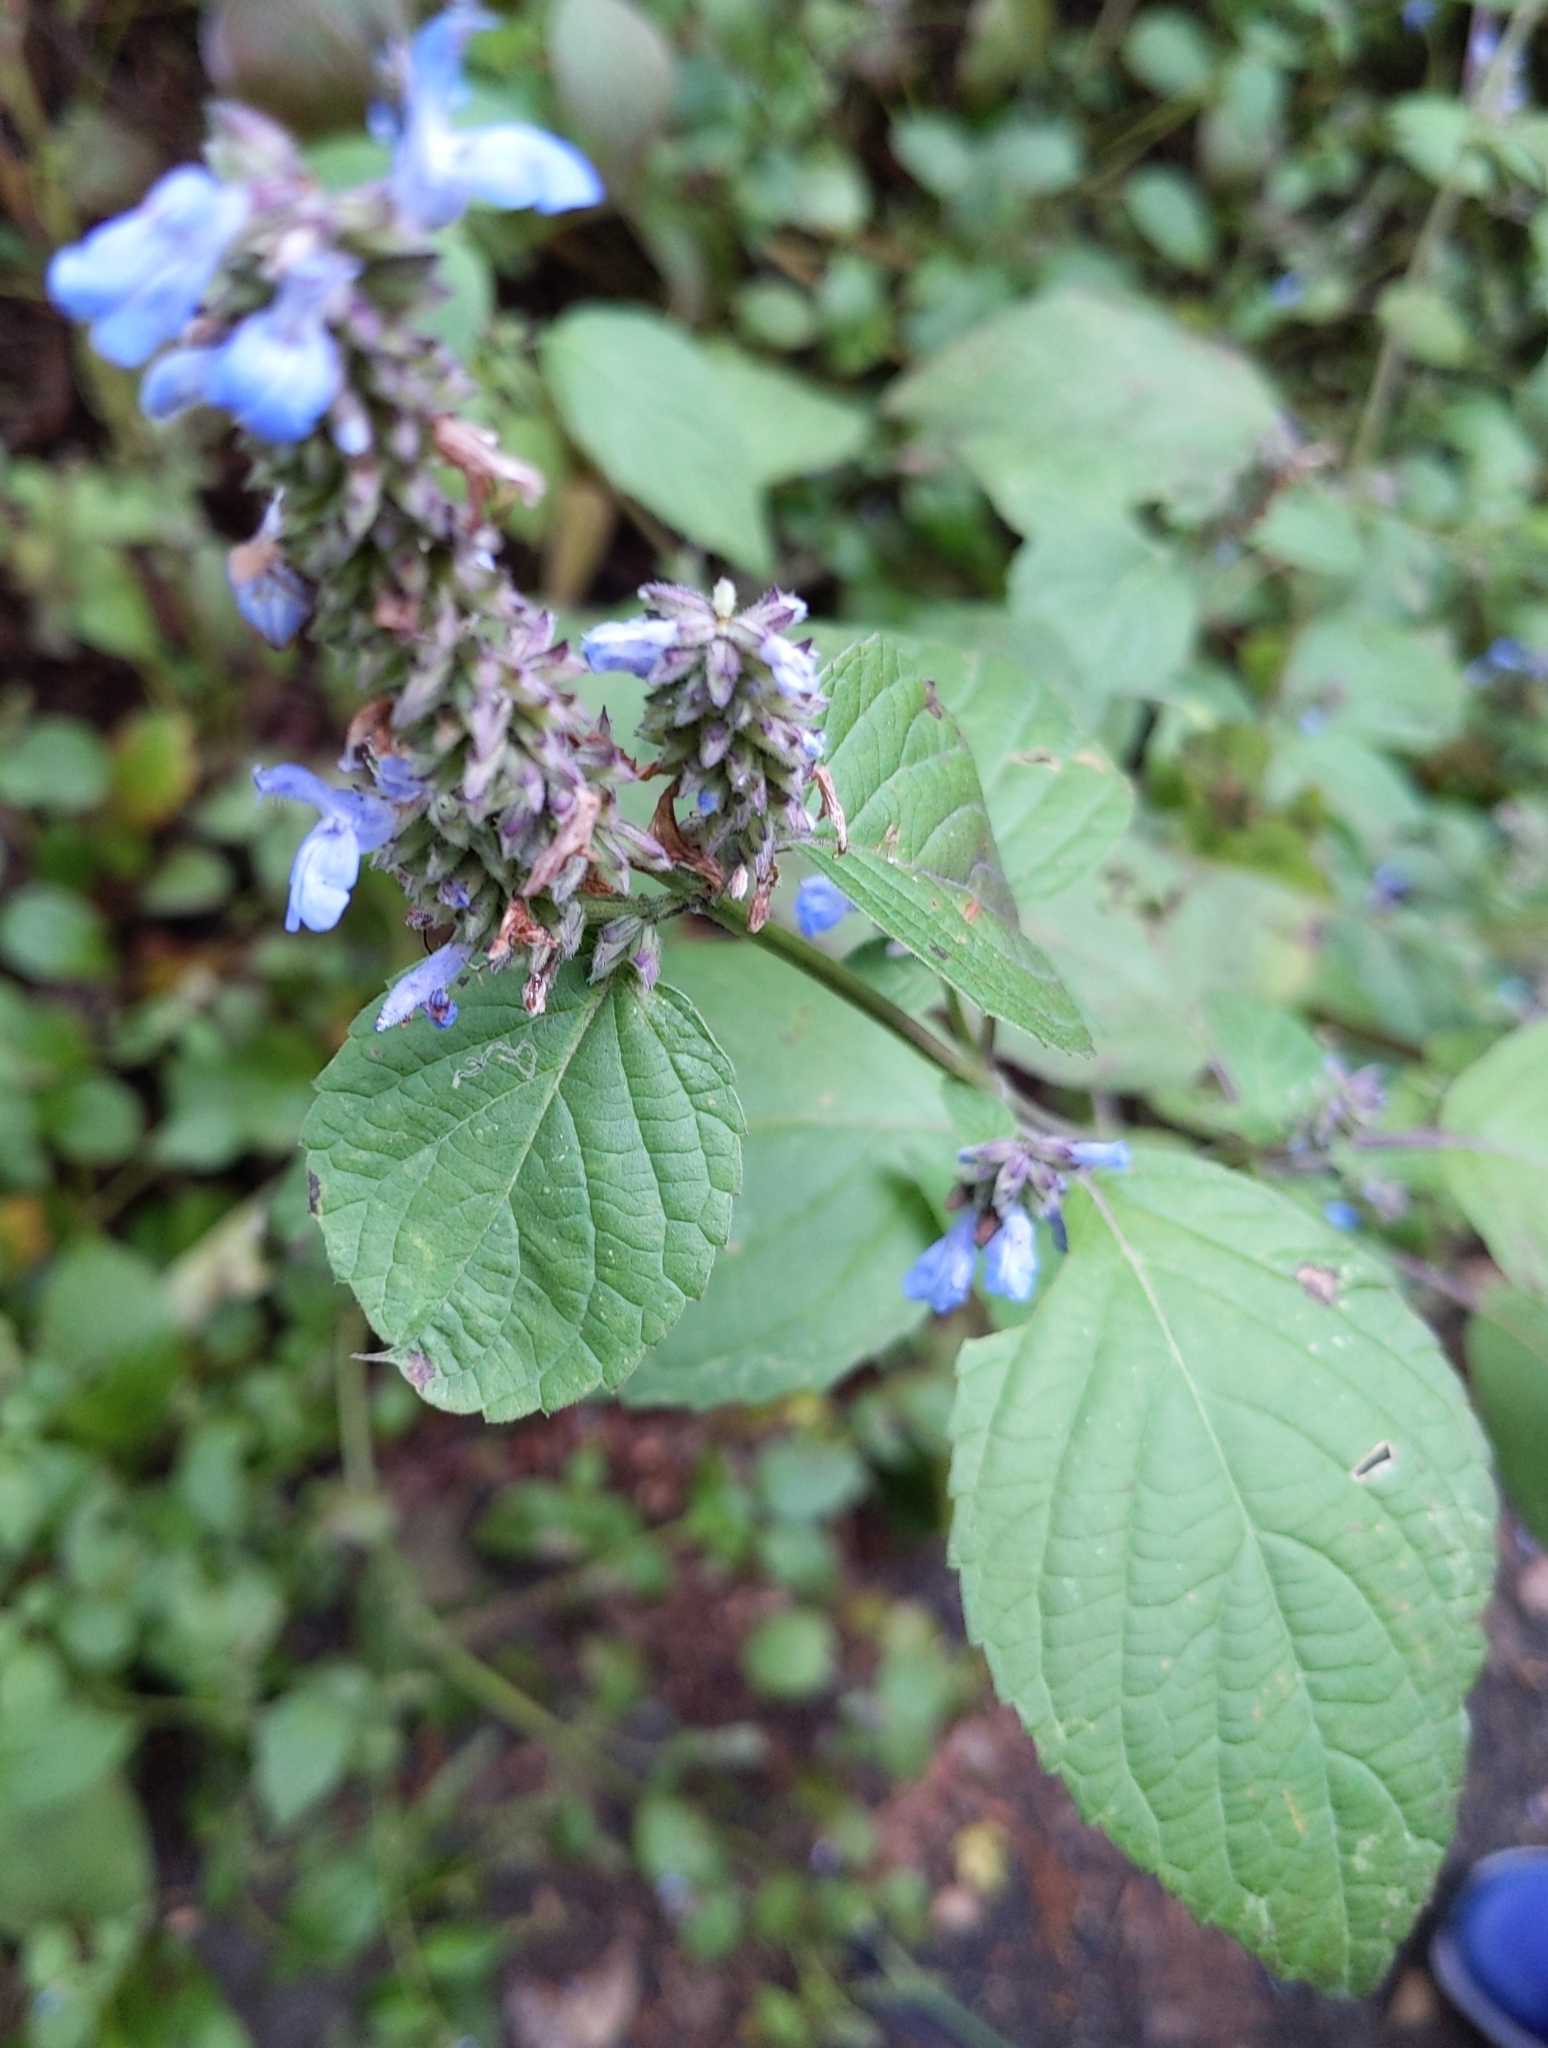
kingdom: Plantae
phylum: Tracheophyta
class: Magnoliopsida
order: Lamiales
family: Lamiaceae
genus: Salvia
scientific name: Salvia polystachia
